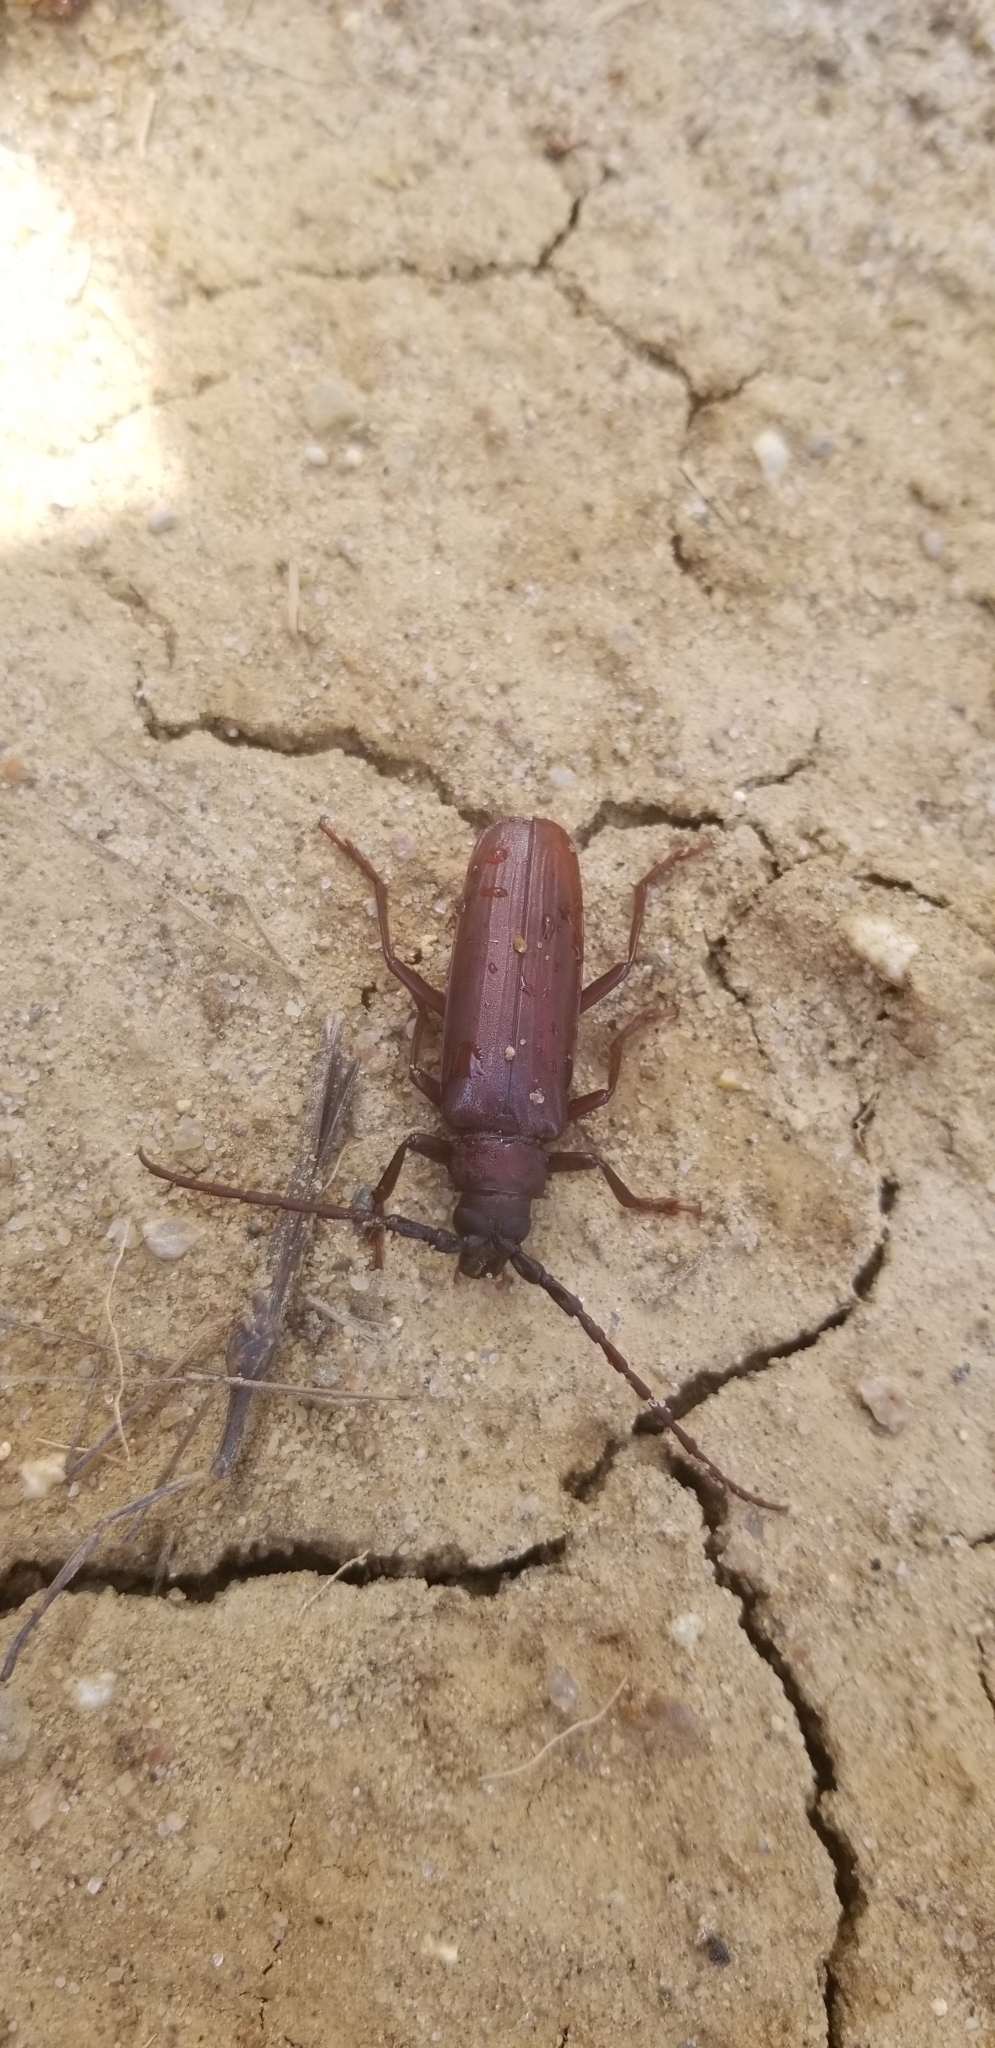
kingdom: Animalia
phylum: Arthropoda
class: Insecta
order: Coleoptera
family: Cerambycidae
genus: Orthosoma
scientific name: Orthosoma brunneum
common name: Brown prionid beetle
